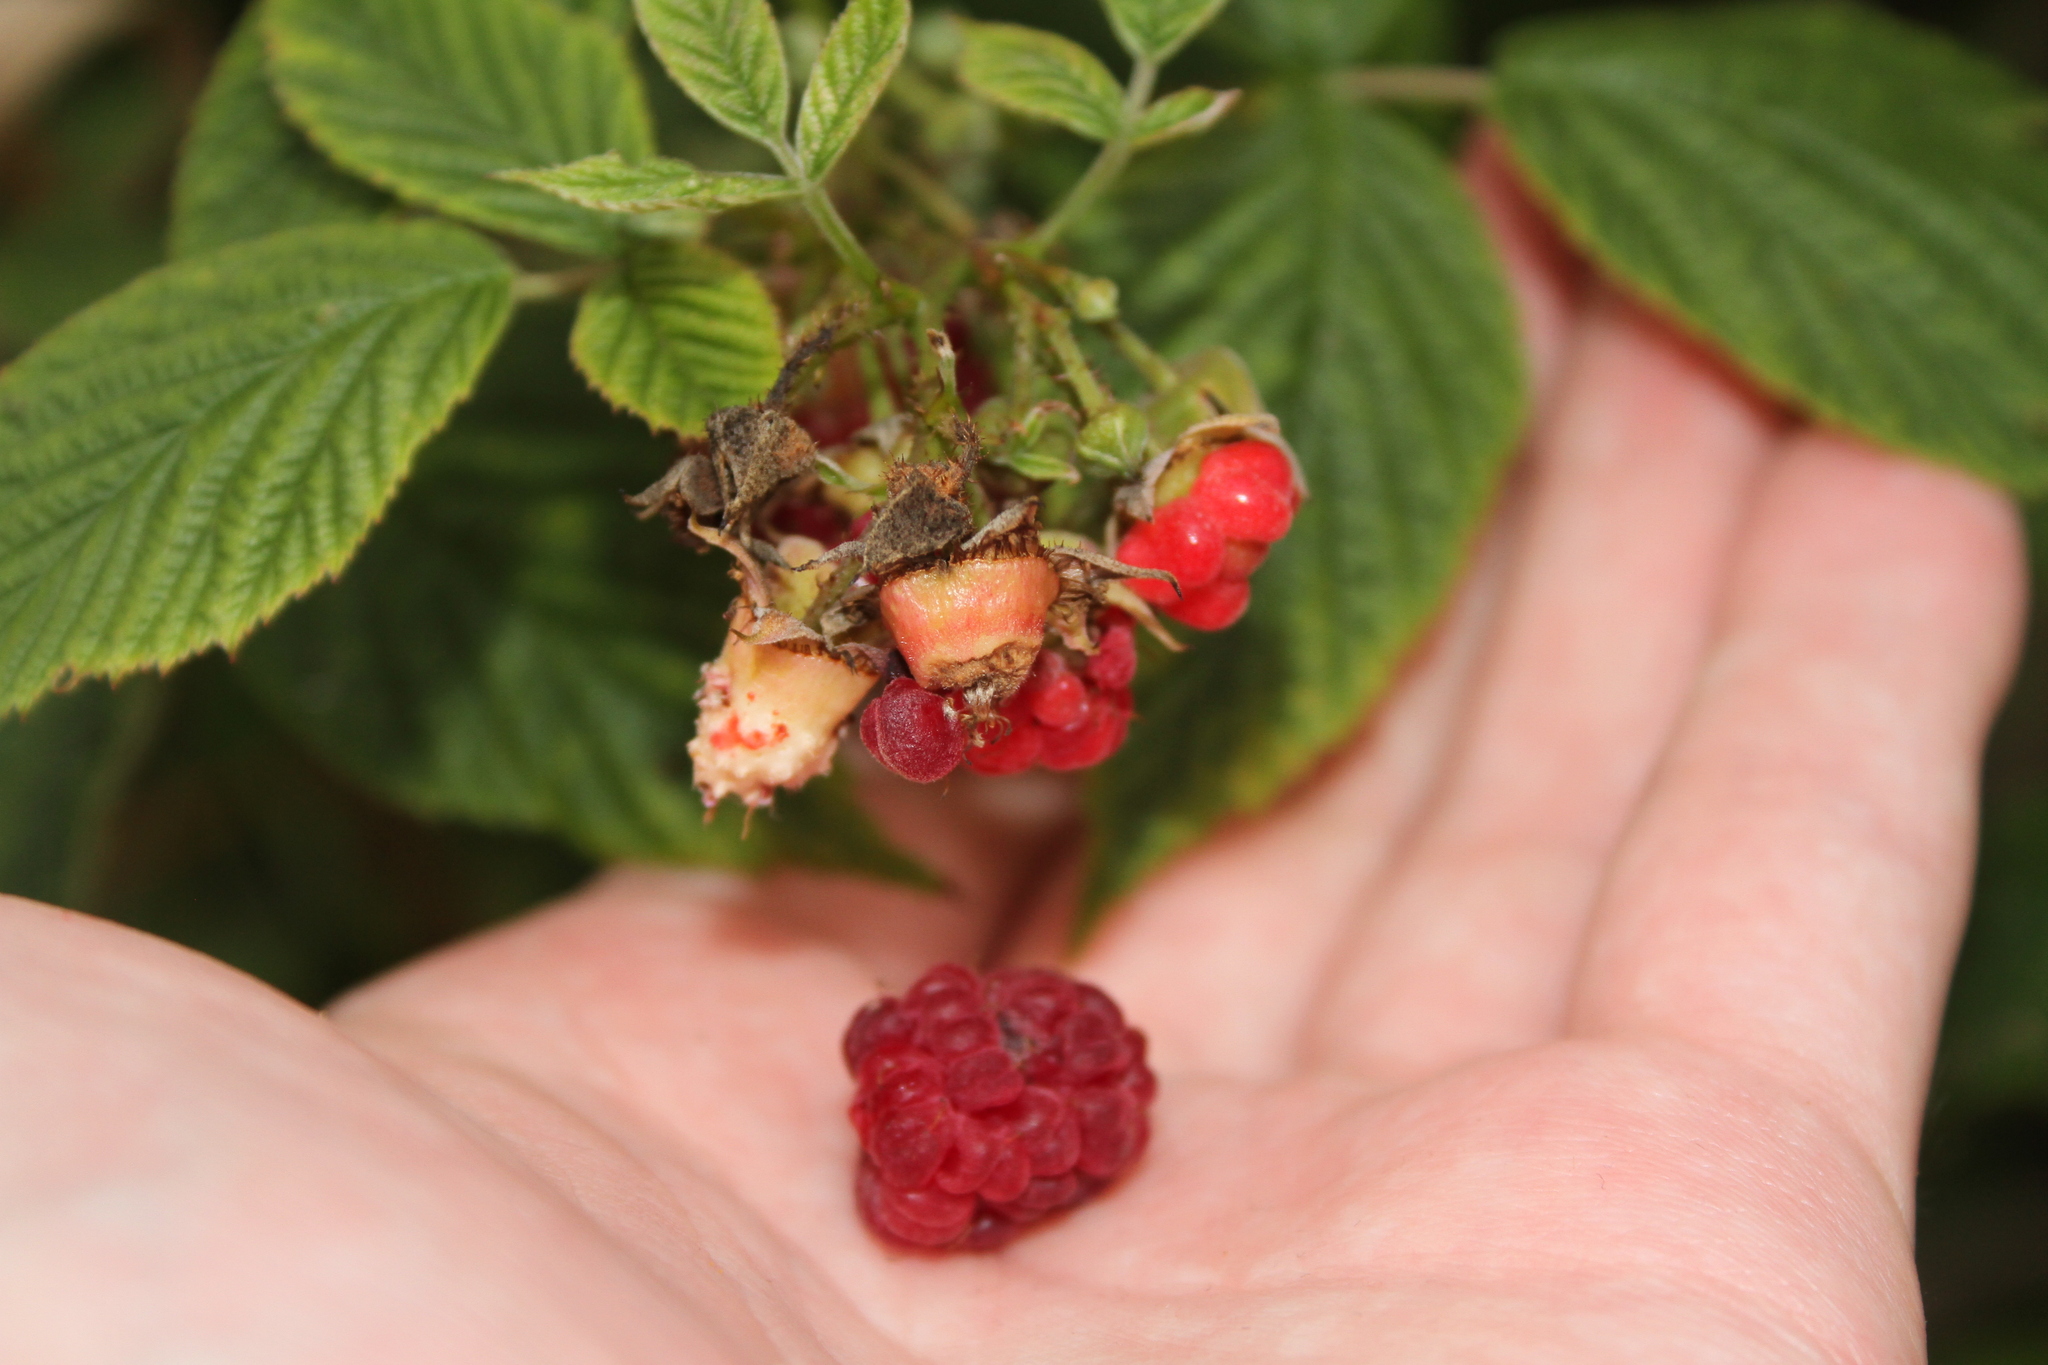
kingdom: Plantae
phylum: Tracheophyta
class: Magnoliopsida
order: Rosales
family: Rosaceae
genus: Rubus
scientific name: Rubus idaeus
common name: Raspberry
